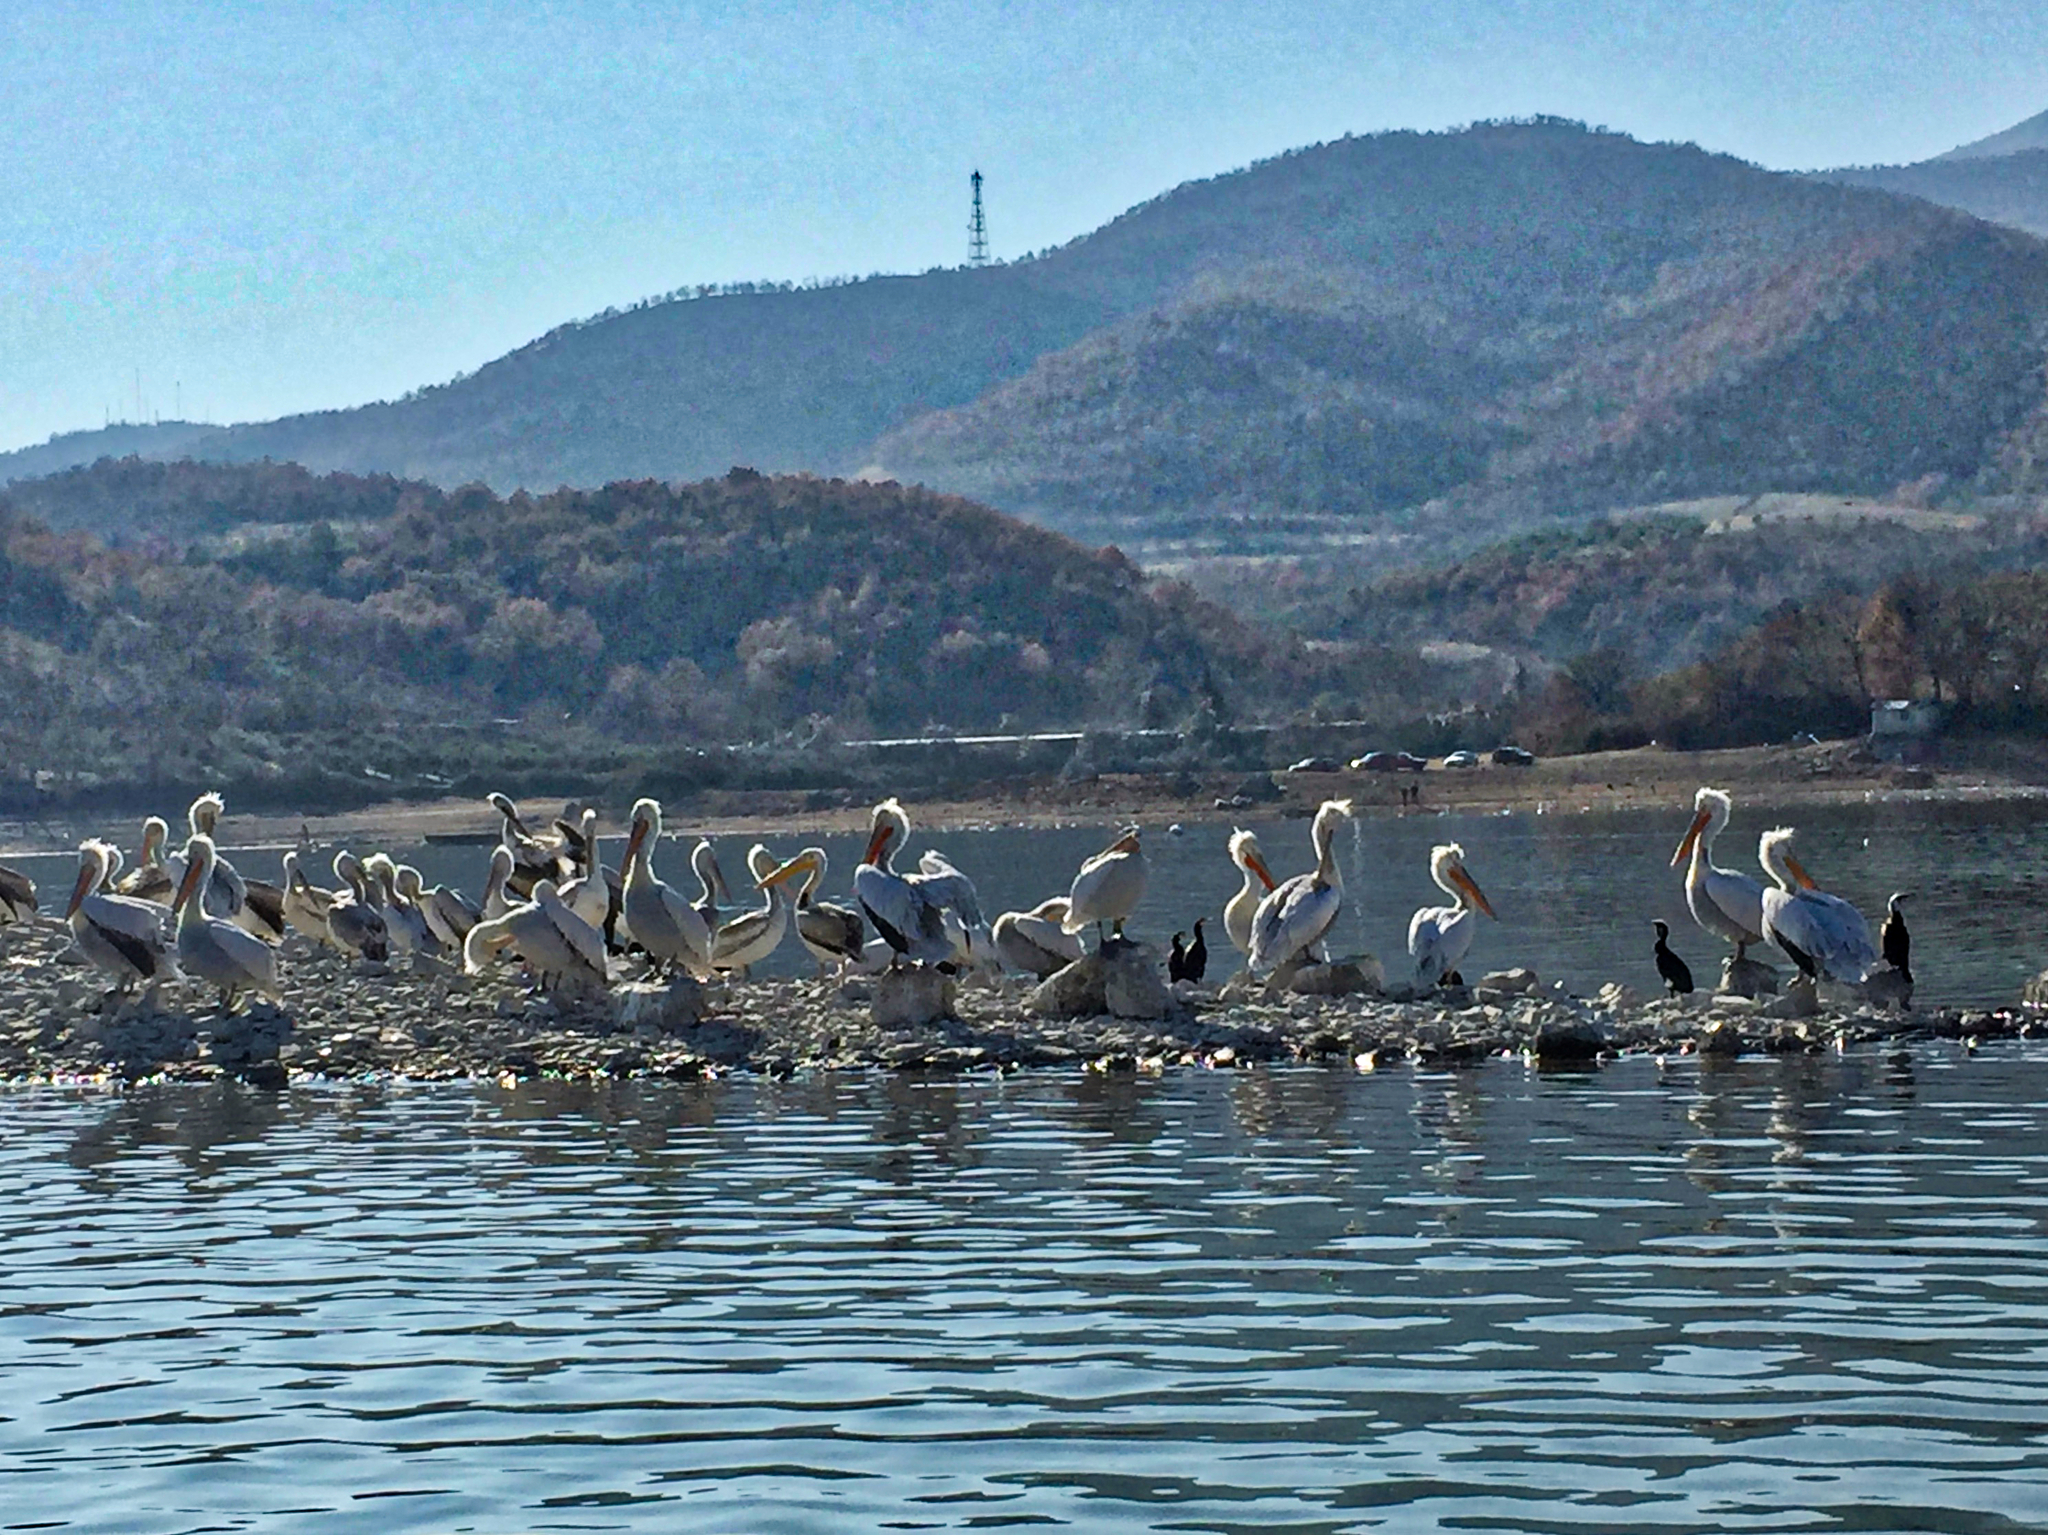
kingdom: Animalia
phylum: Chordata
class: Aves
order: Pelecaniformes
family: Pelecanidae
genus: Pelecanus
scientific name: Pelecanus crispus
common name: Dalmatian pelican
